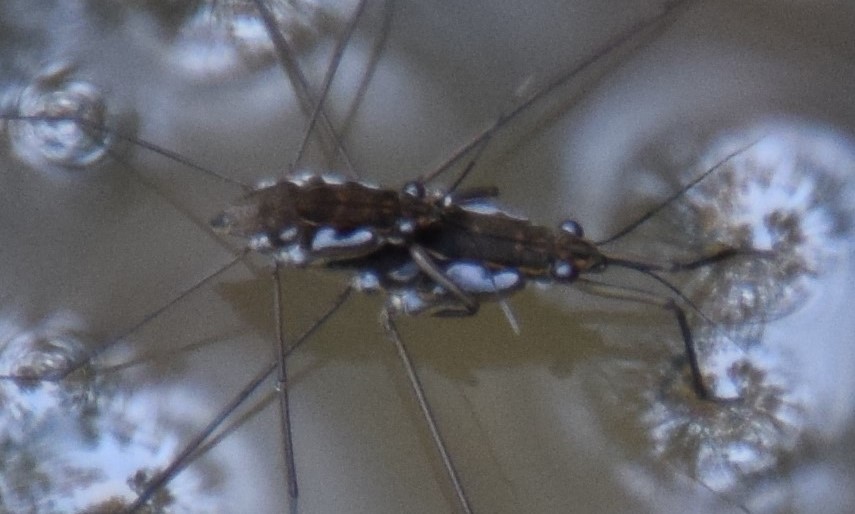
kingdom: Animalia
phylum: Arthropoda
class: Insecta
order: Hemiptera
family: Gerridae
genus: Tenagogerris
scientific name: Tenagogerris euphrosyne
